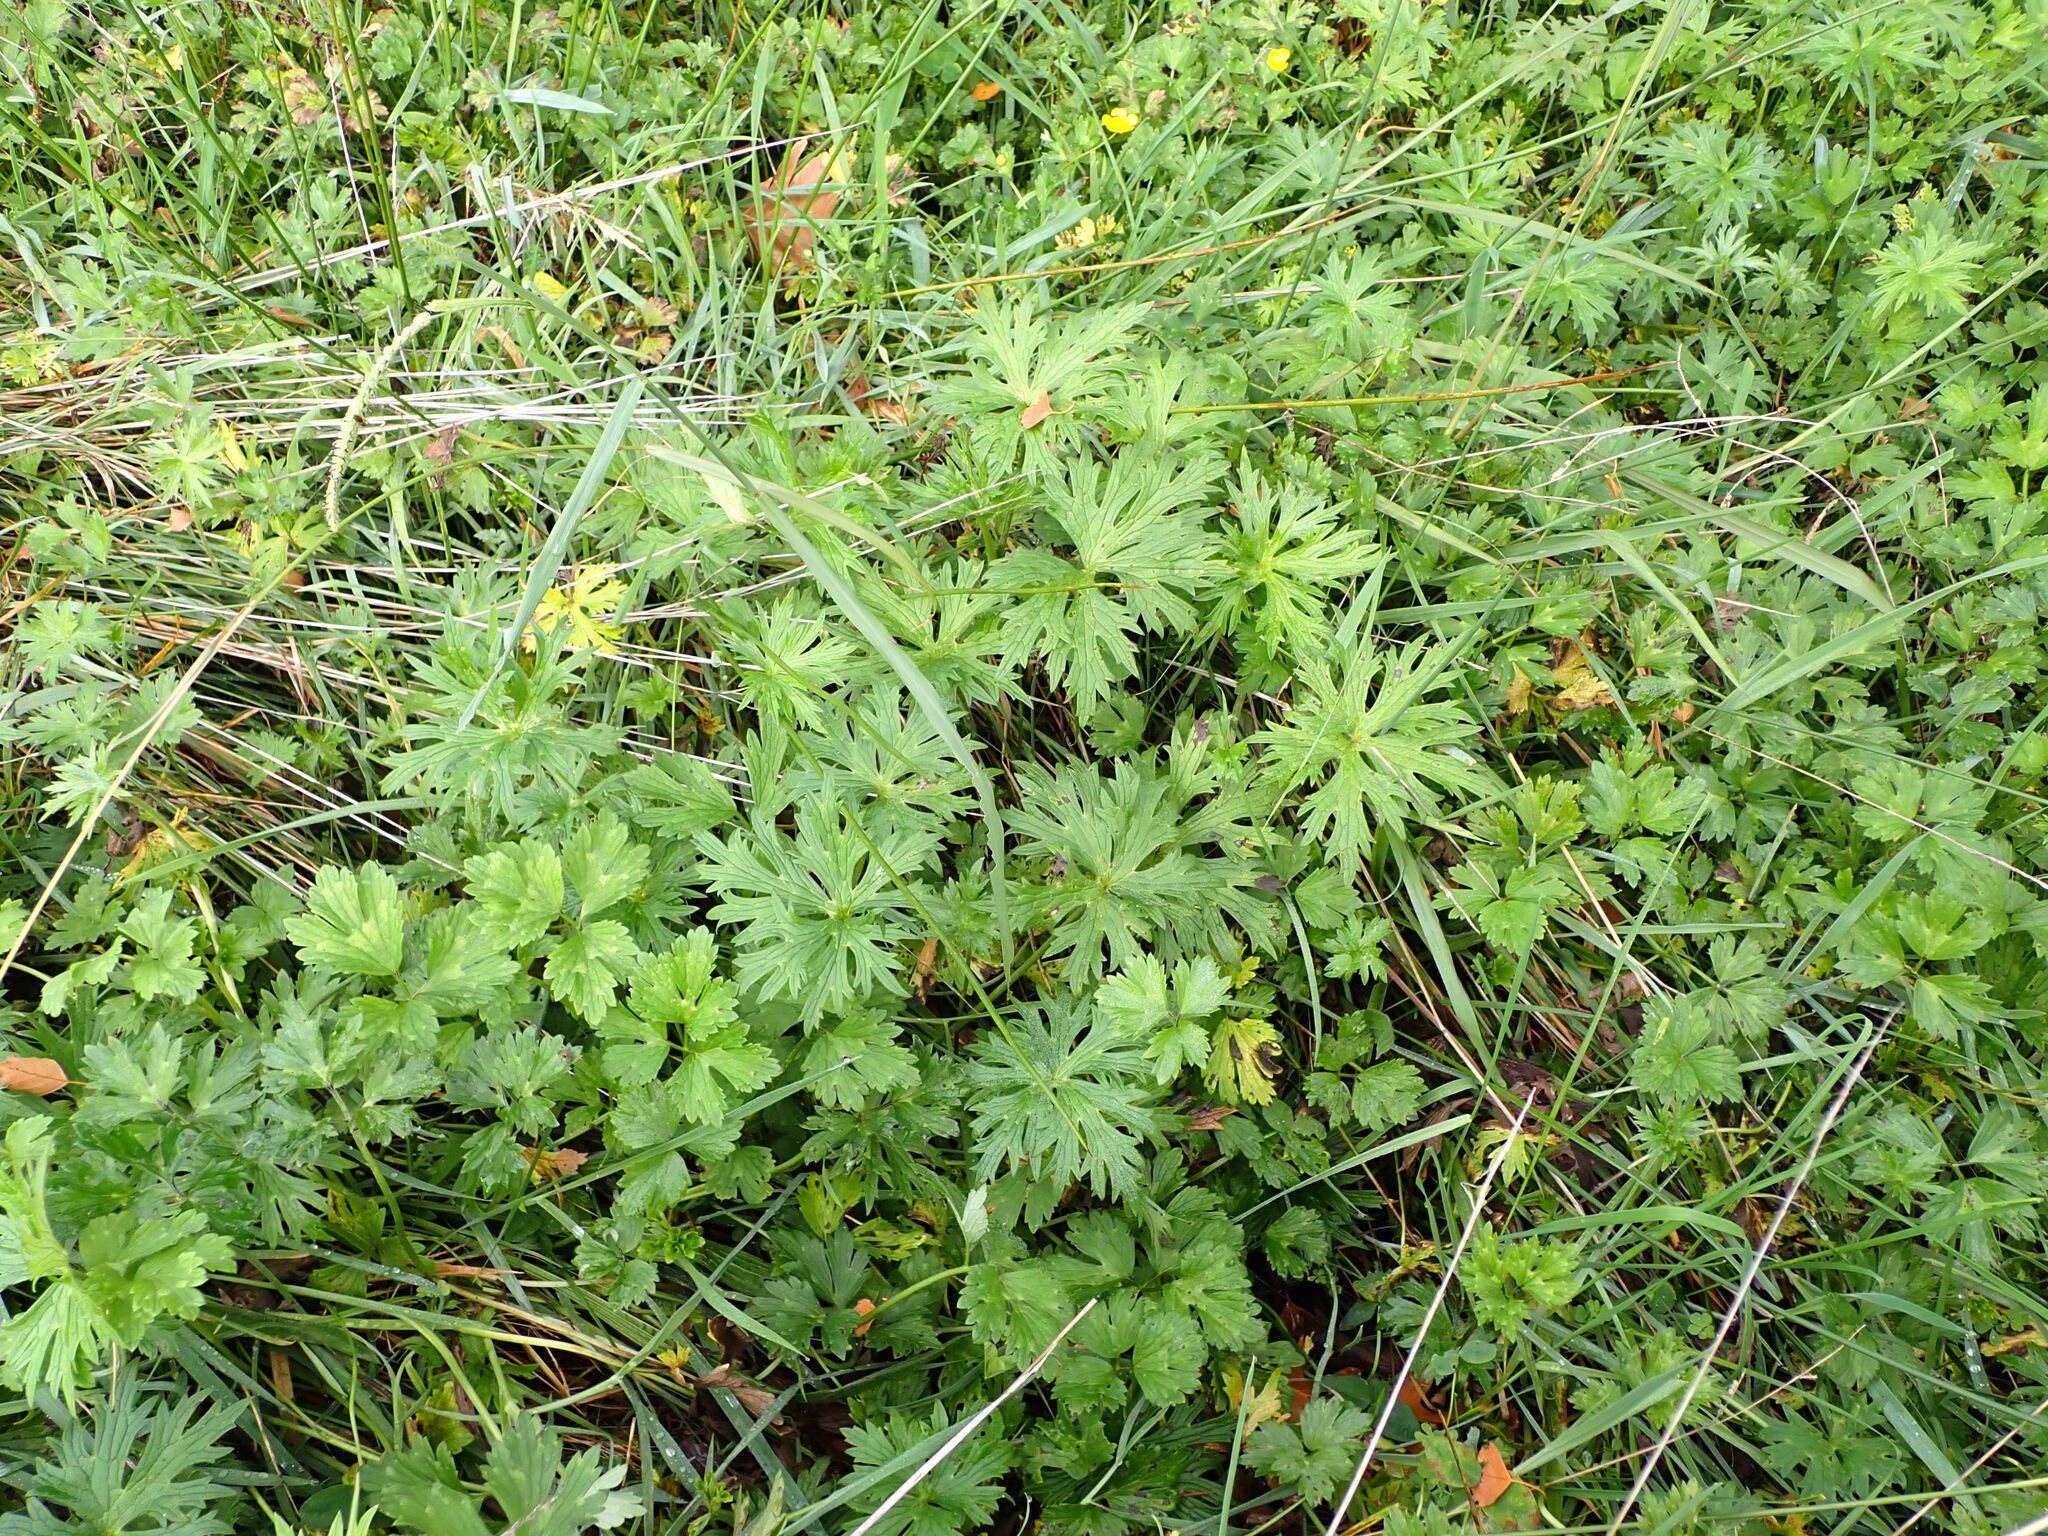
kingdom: Plantae
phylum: Tracheophyta
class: Magnoliopsida
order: Ranunculales
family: Ranunculaceae
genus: Ranunculus
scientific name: Ranunculus acris
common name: Meadow buttercup
